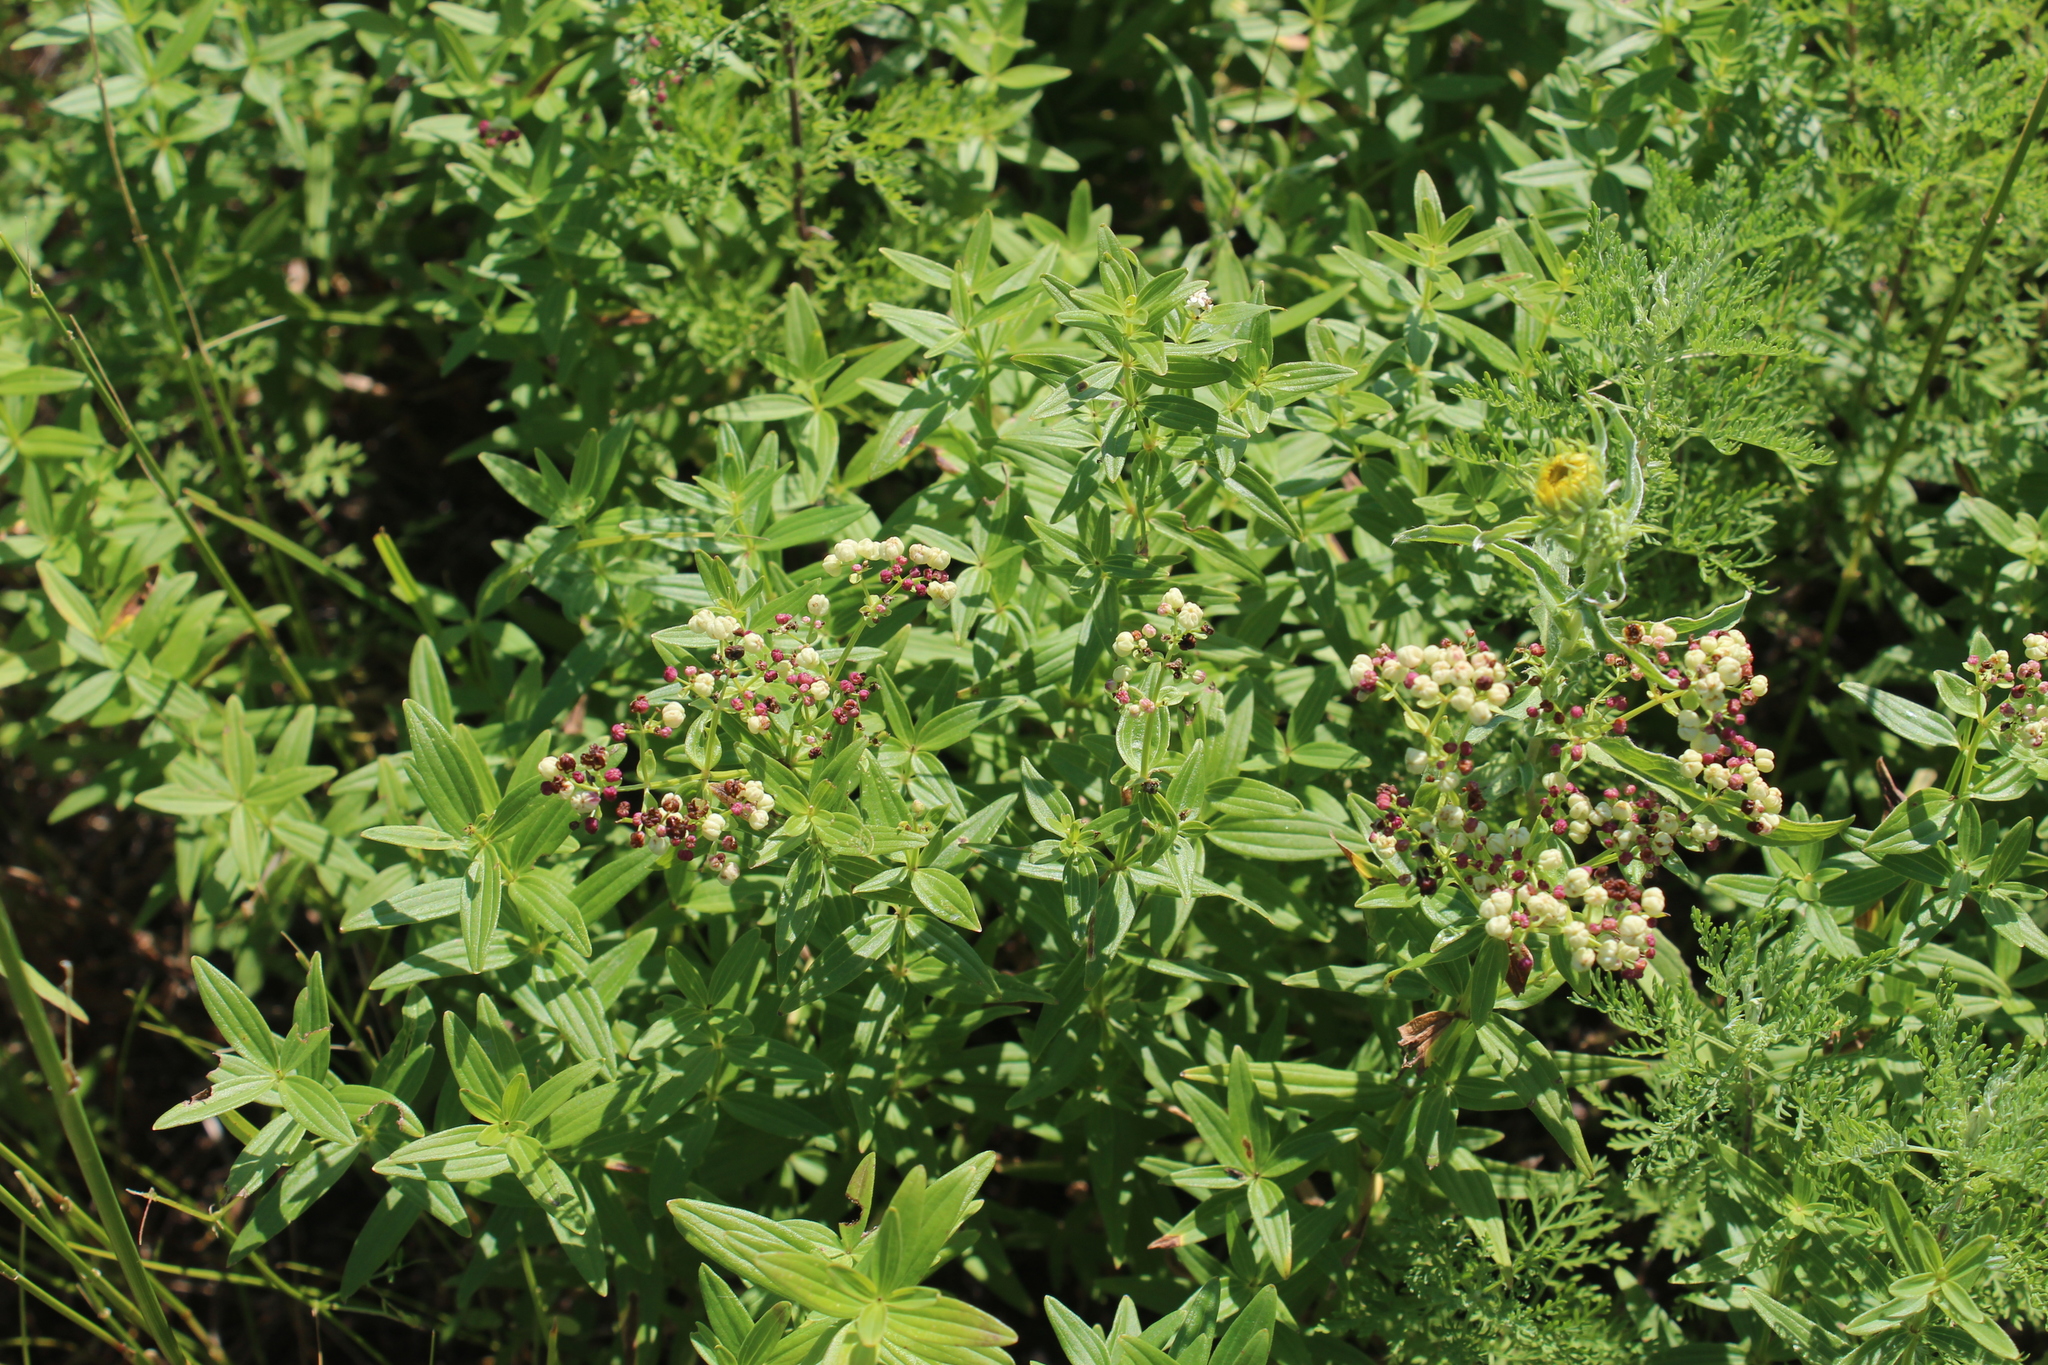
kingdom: Plantae
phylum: Tracheophyta
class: Magnoliopsida
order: Gentianales
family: Rubiaceae
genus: Galium
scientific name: Galium rubioides
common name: European bedstraw
